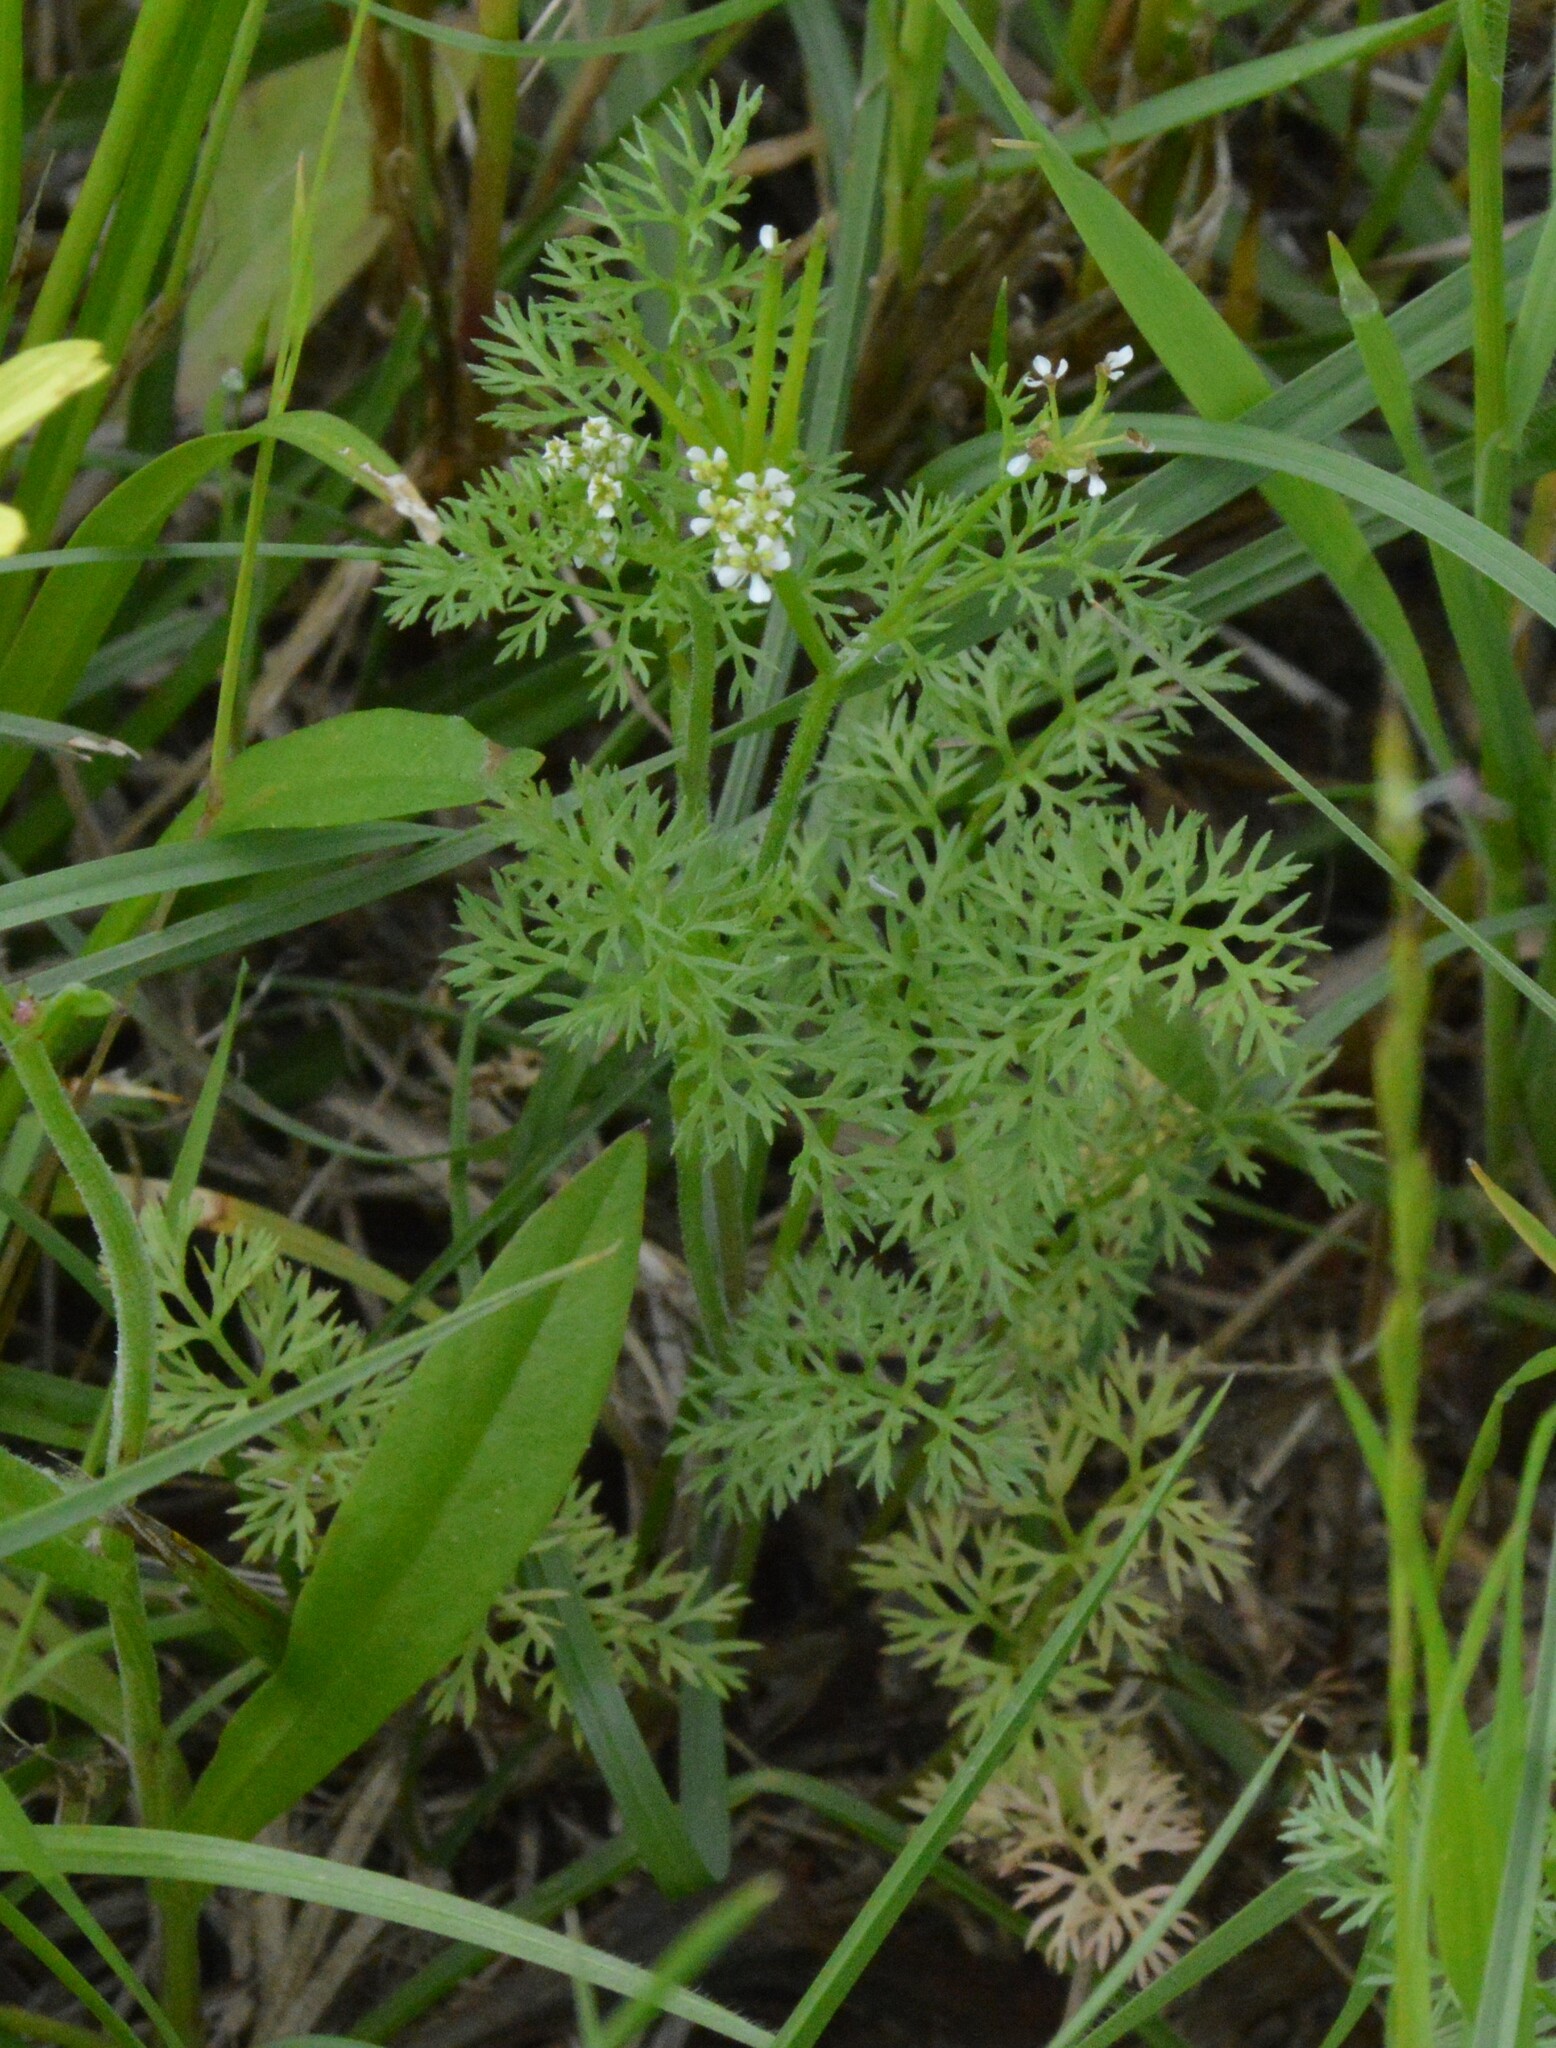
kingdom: Plantae
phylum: Tracheophyta
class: Magnoliopsida
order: Apiales
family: Apiaceae
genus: Scandix
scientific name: Scandix pecten-veneris
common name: Shepherd's-needle
